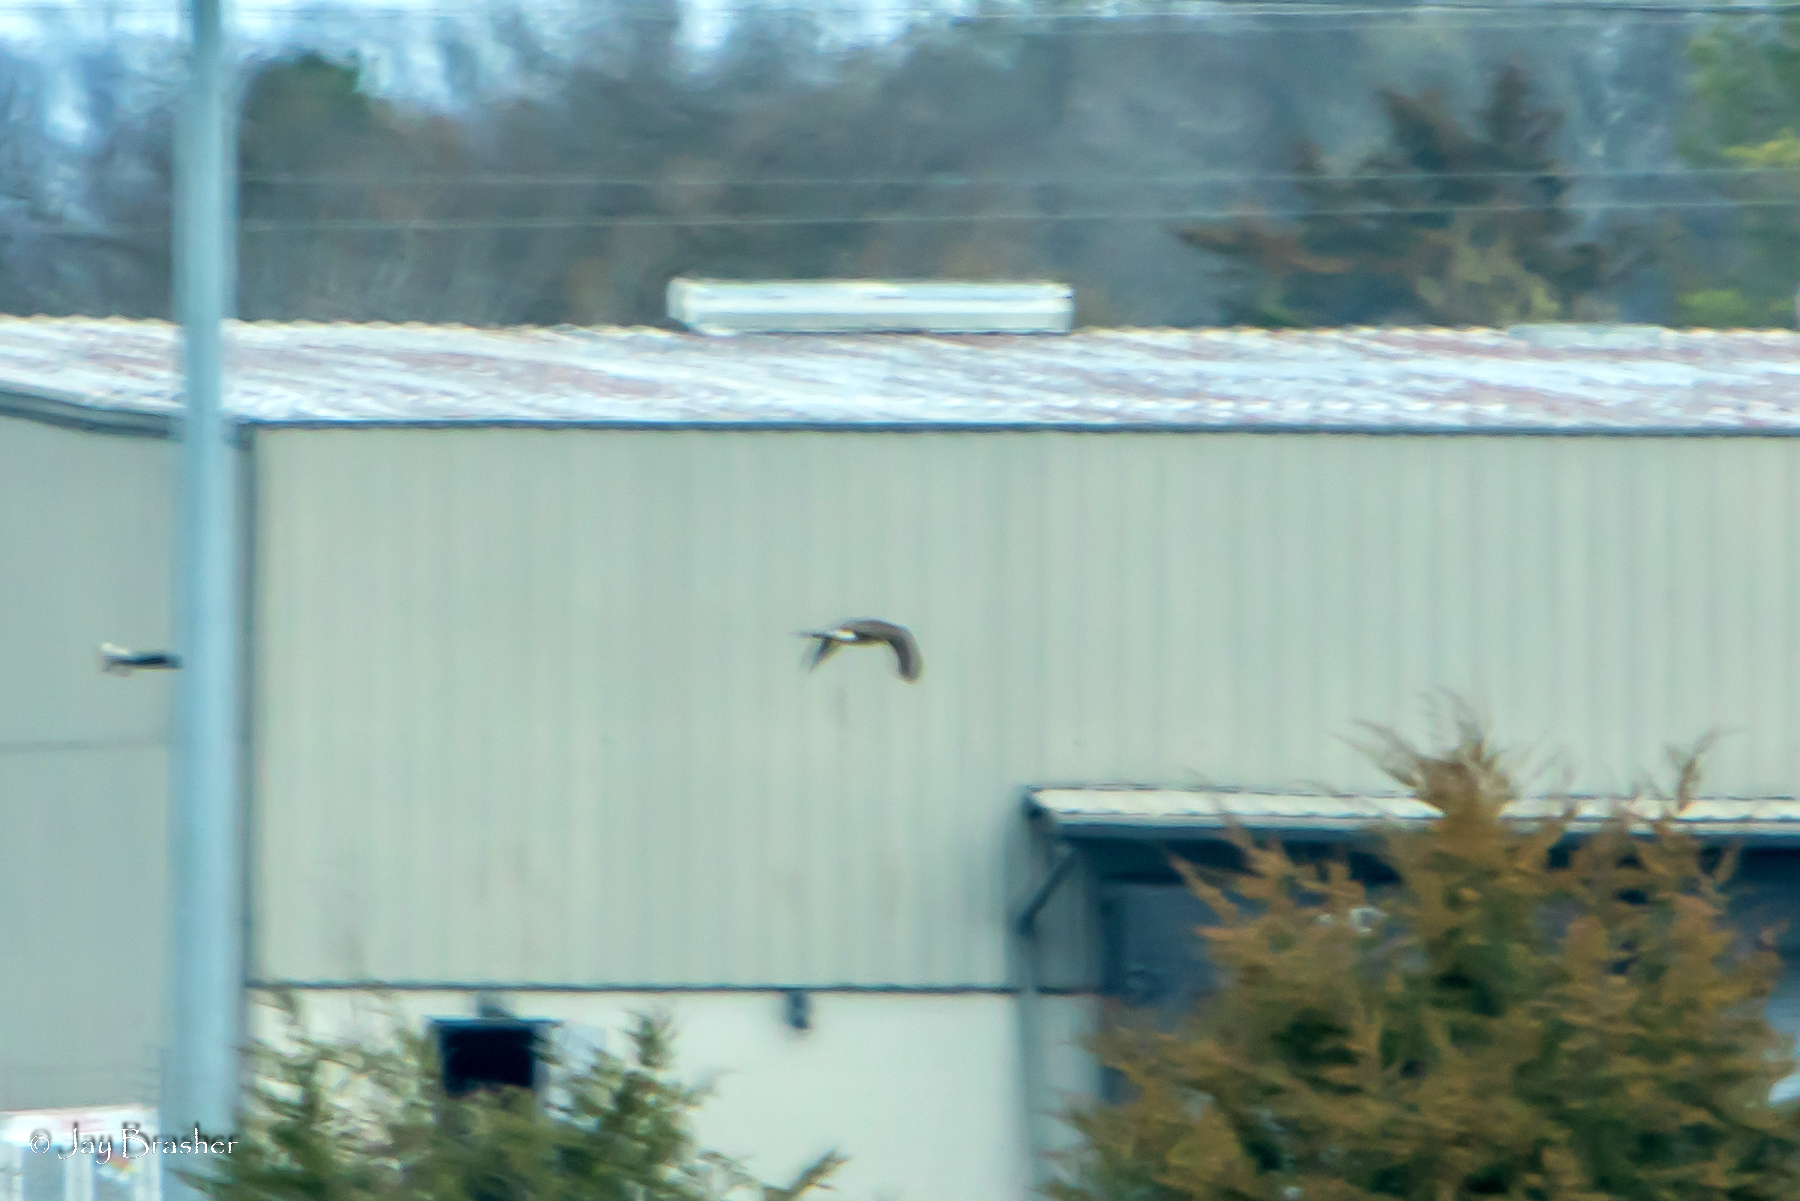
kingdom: Animalia
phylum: Chordata
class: Aves
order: Accipitriformes
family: Accipitridae
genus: Circus
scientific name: Circus cyaneus
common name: Hen harrier
